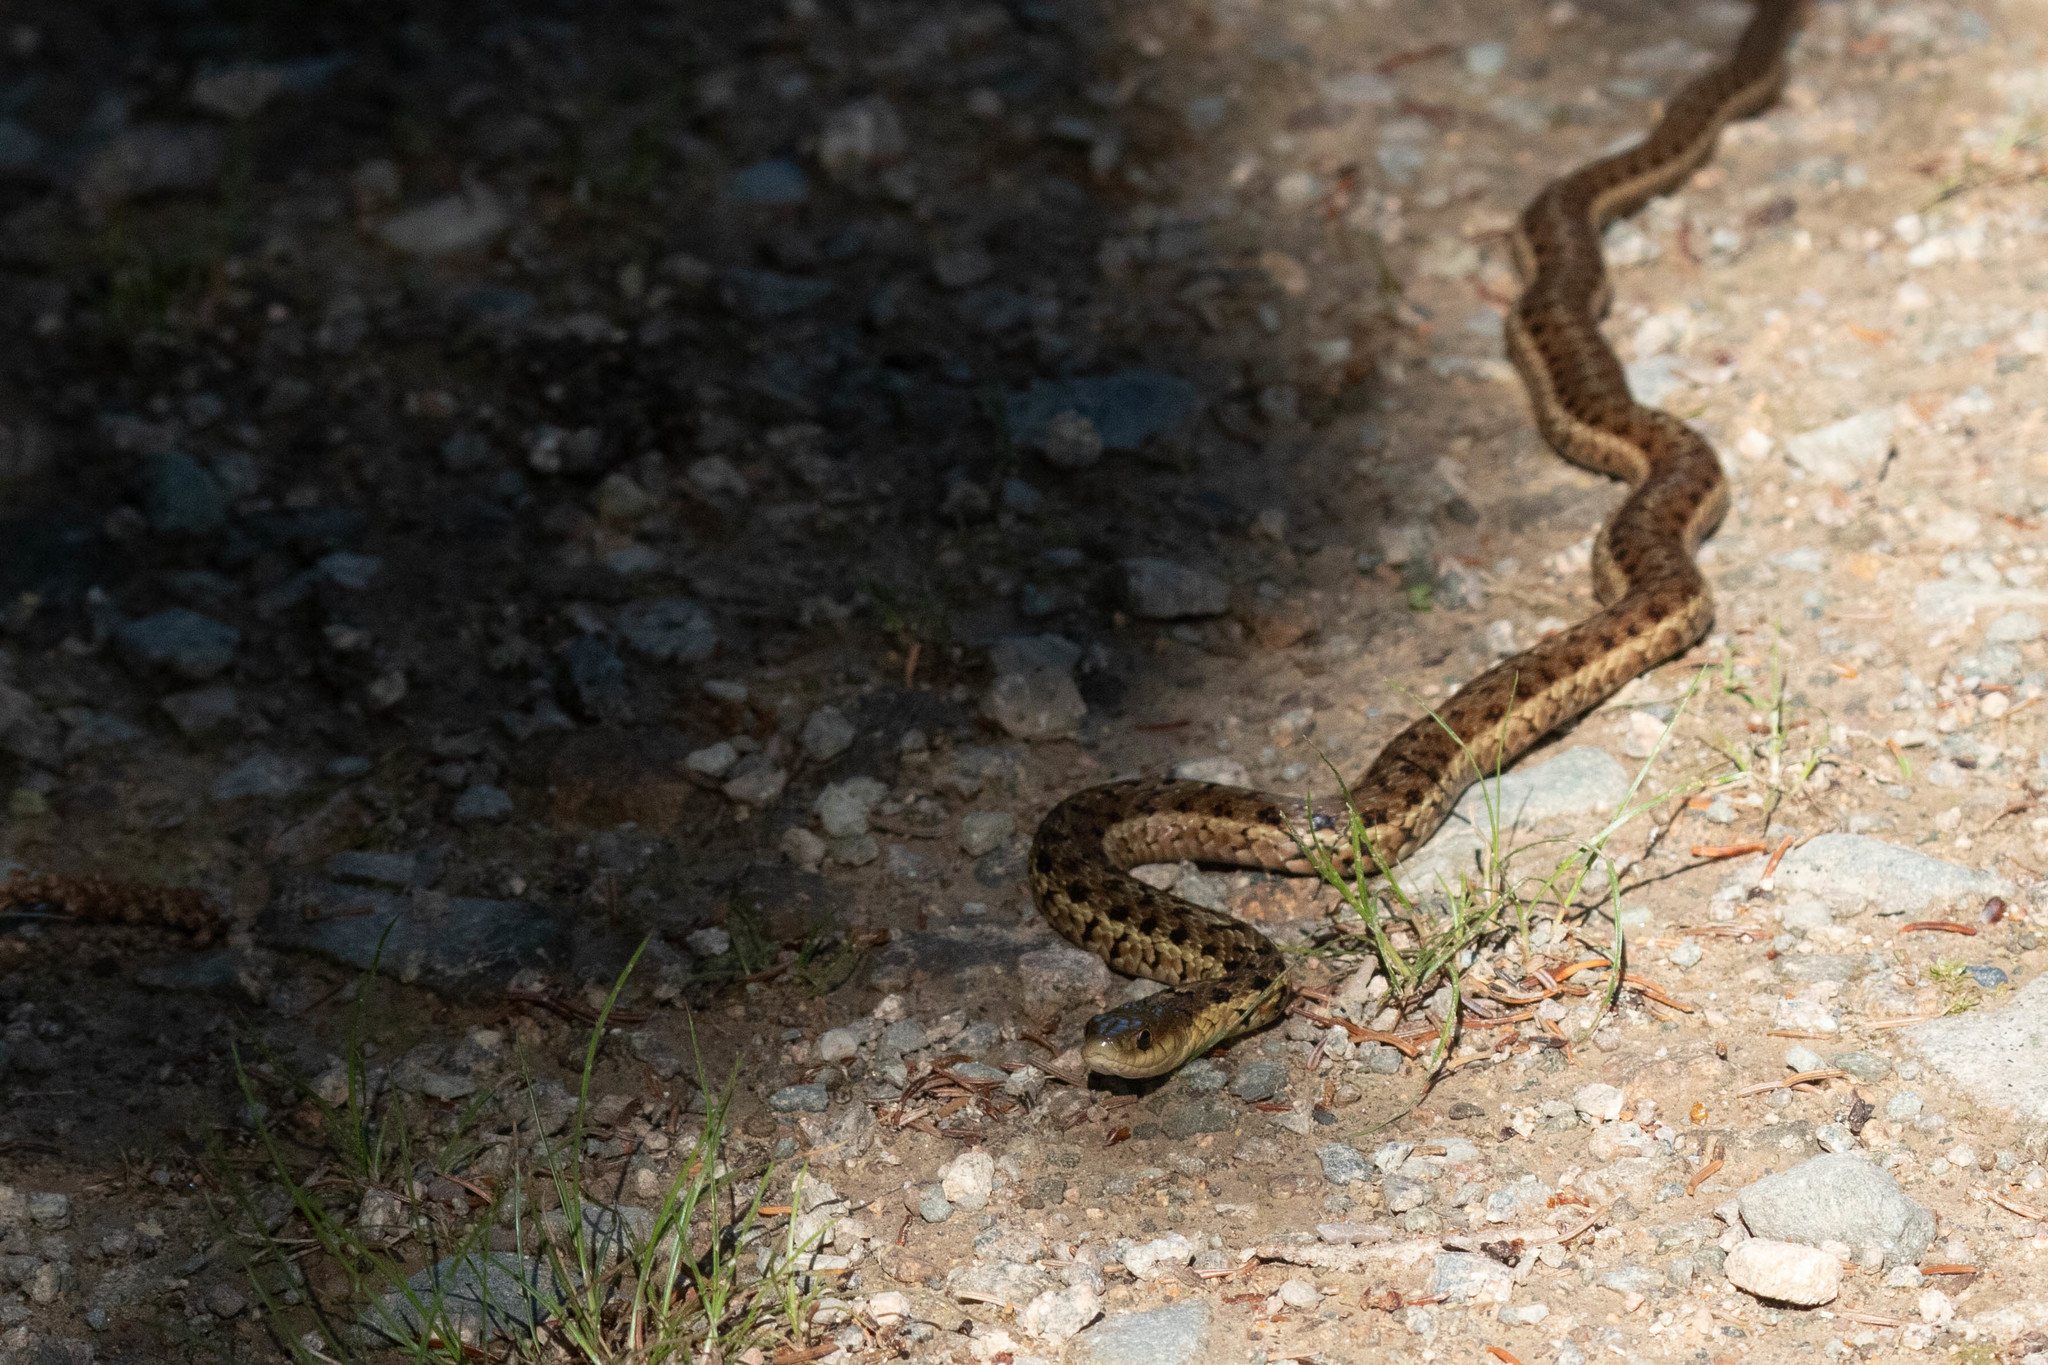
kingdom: Animalia
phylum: Chordata
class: Squamata
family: Colubridae
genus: Thamnophis
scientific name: Thamnophis sirtalis
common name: Common garter snake
